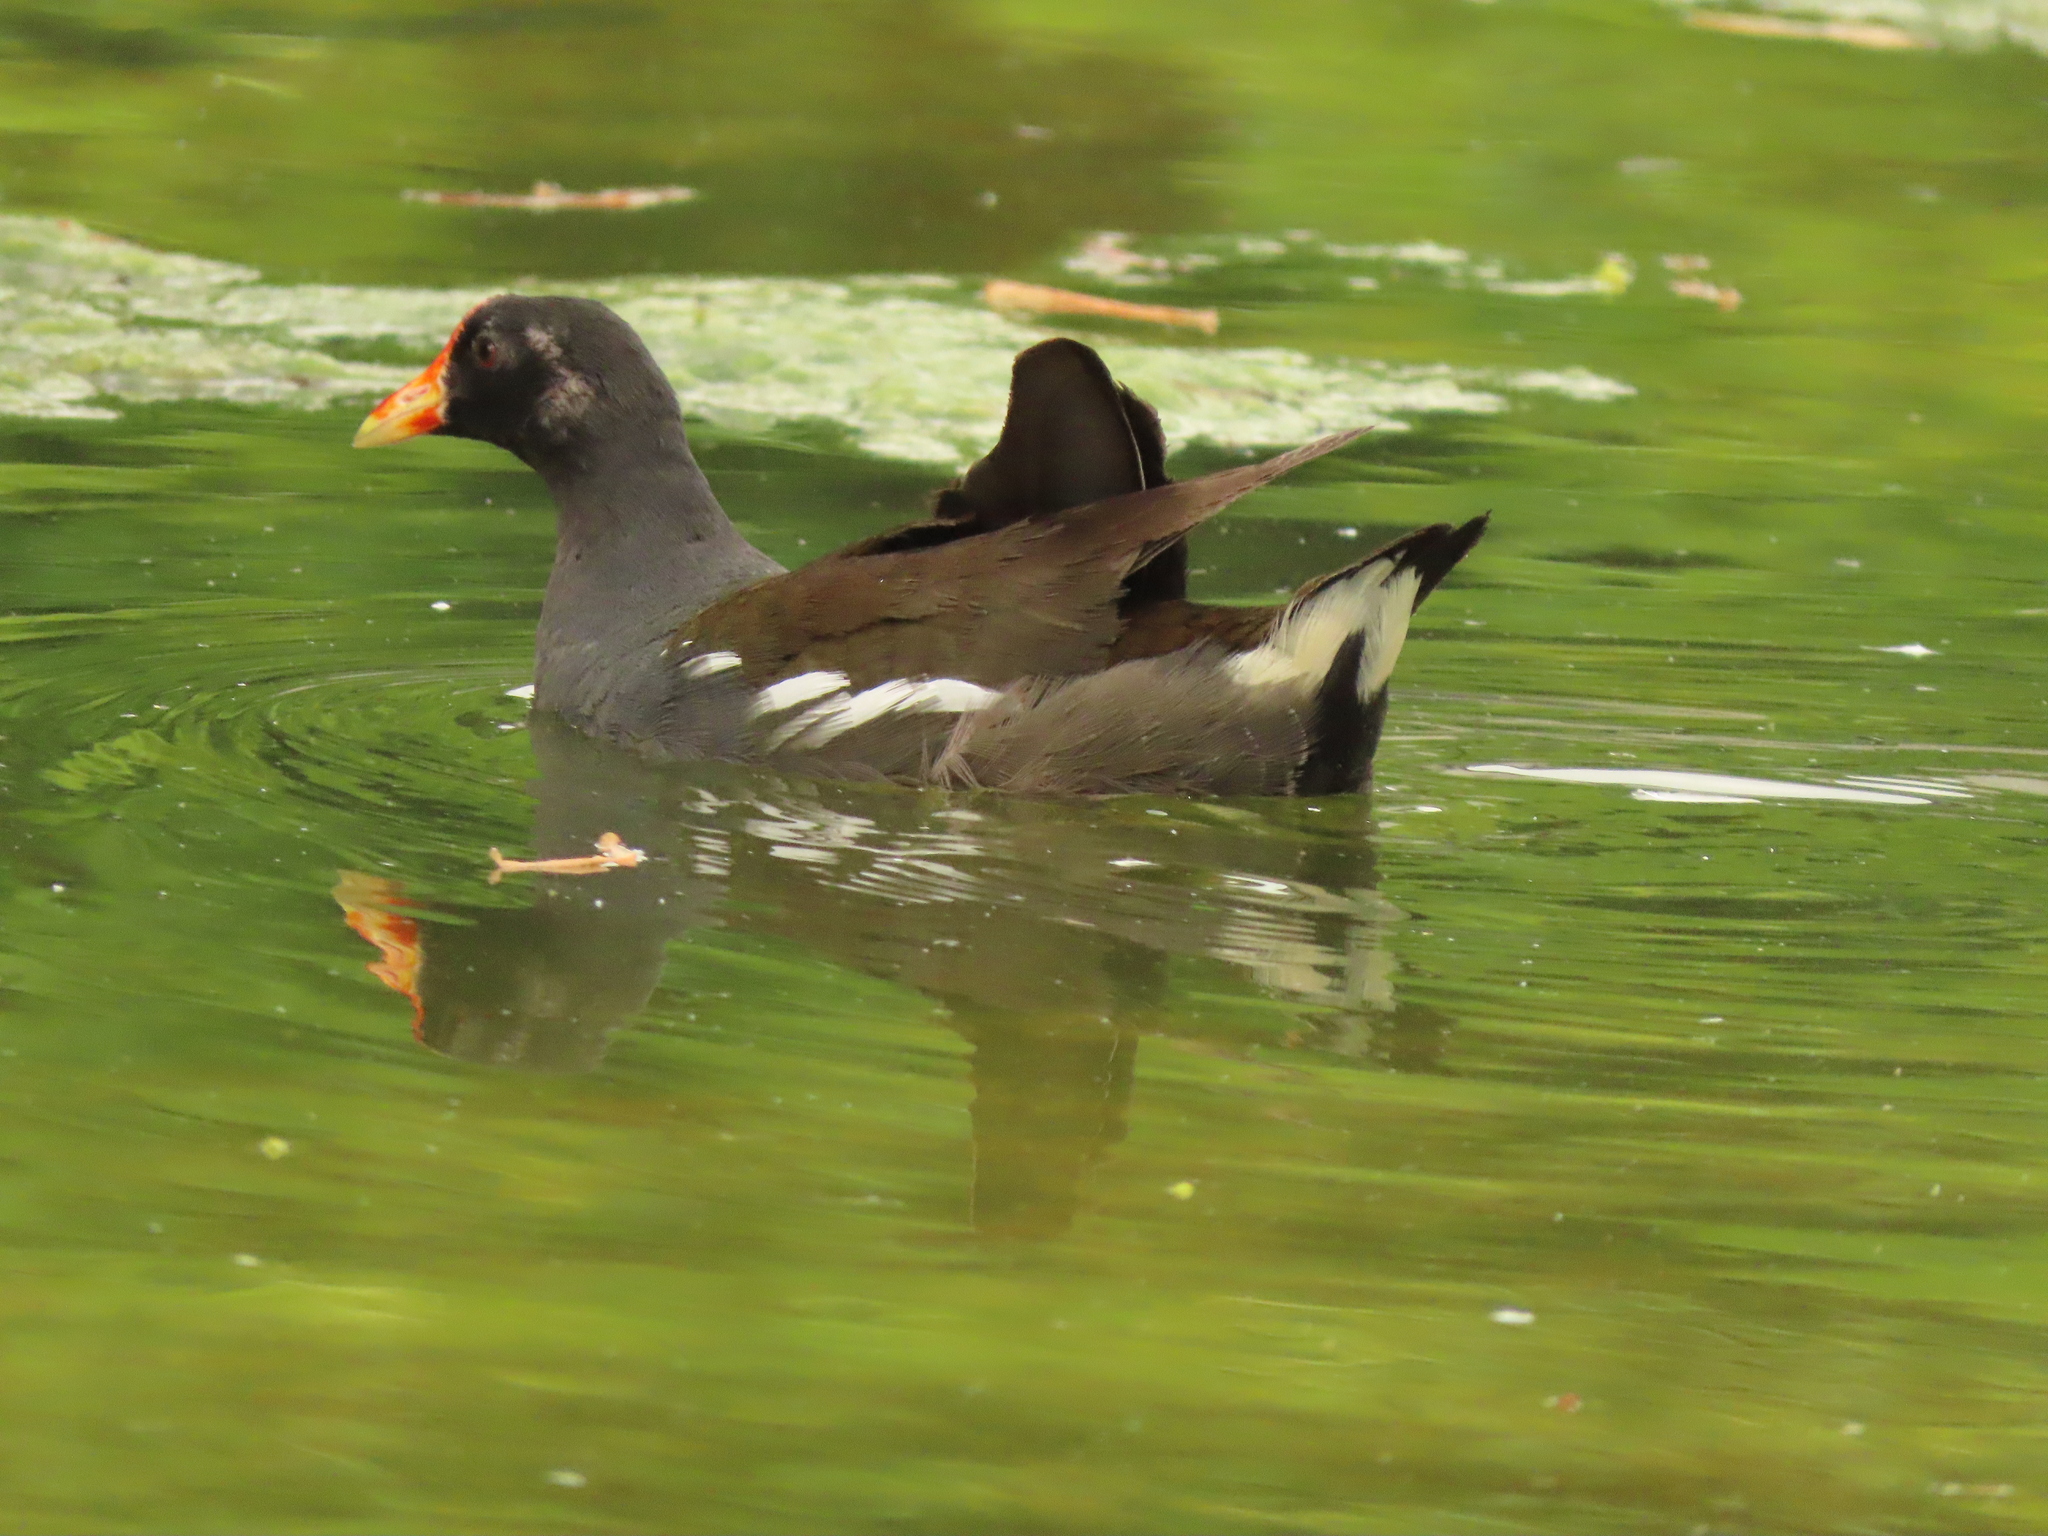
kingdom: Animalia
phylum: Chordata
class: Aves
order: Gruiformes
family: Rallidae
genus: Gallinula
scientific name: Gallinula chloropus
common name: Common moorhen
